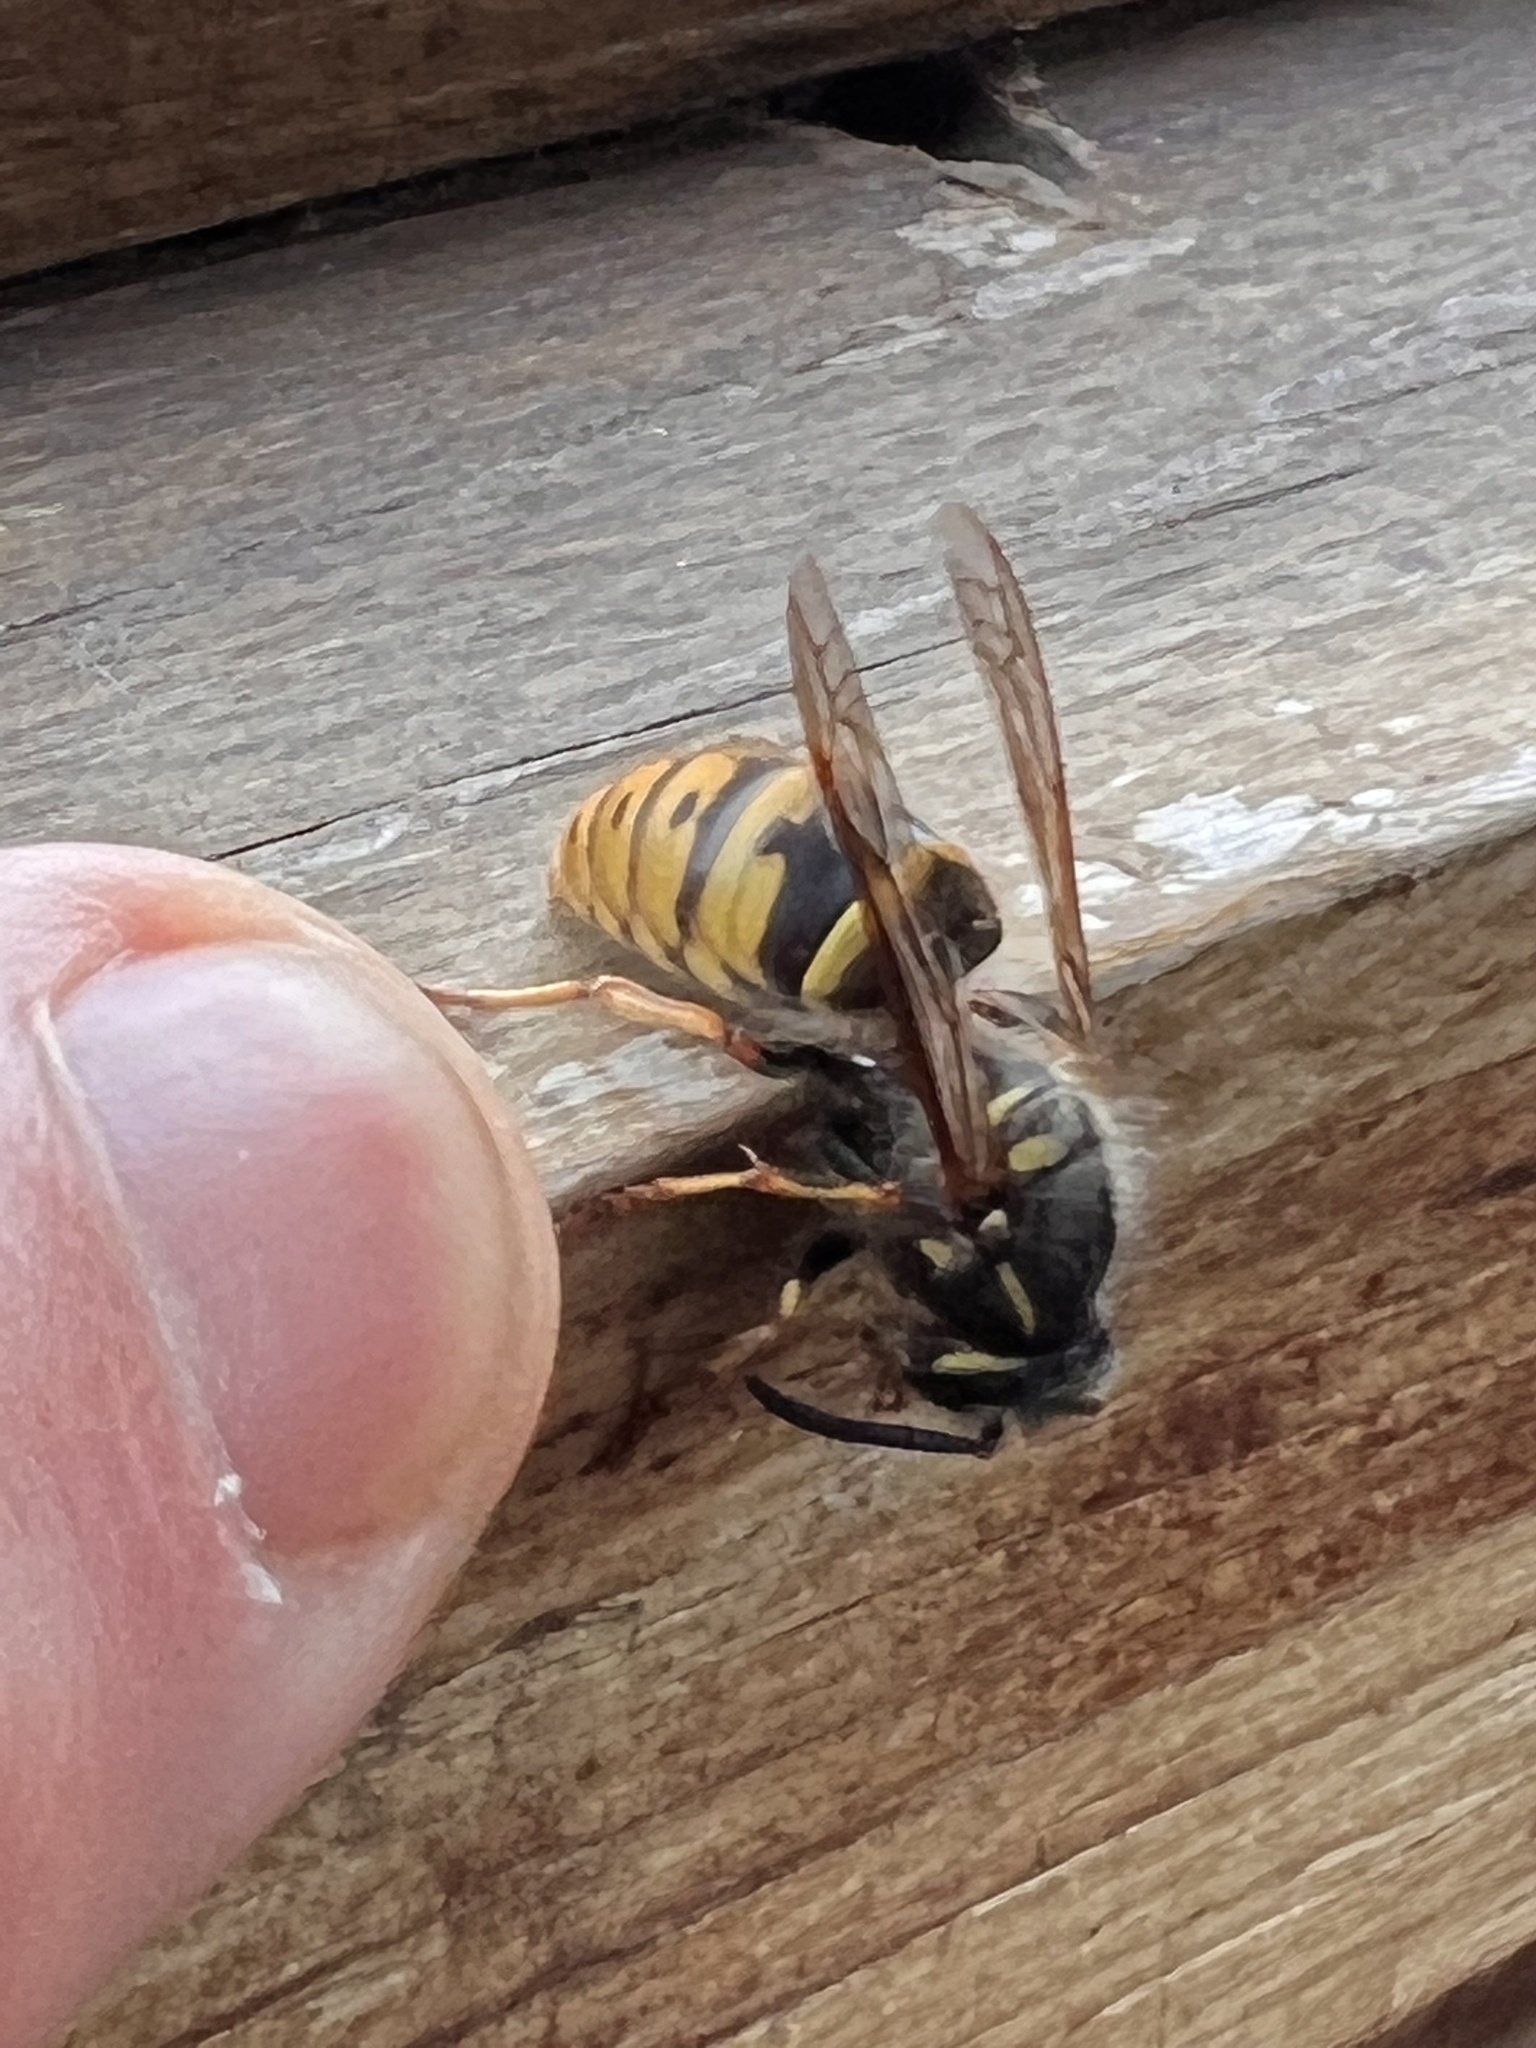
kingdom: Animalia
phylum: Arthropoda
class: Insecta
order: Hymenoptera
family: Vespidae
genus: Vespula
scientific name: Vespula vulgaris
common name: Common wasp
